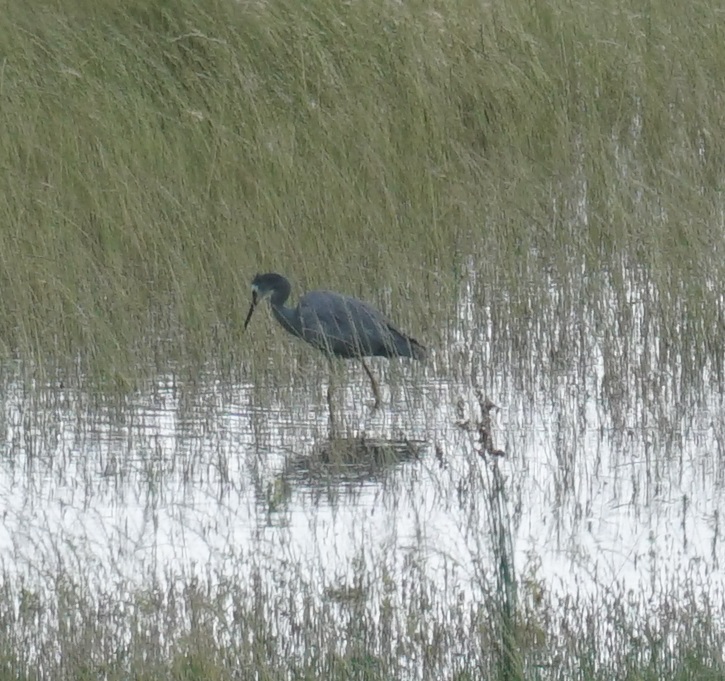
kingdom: Animalia
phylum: Chordata
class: Aves
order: Pelecaniformes
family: Ardeidae
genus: Egretta
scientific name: Egretta novaehollandiae
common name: White-faced heron
